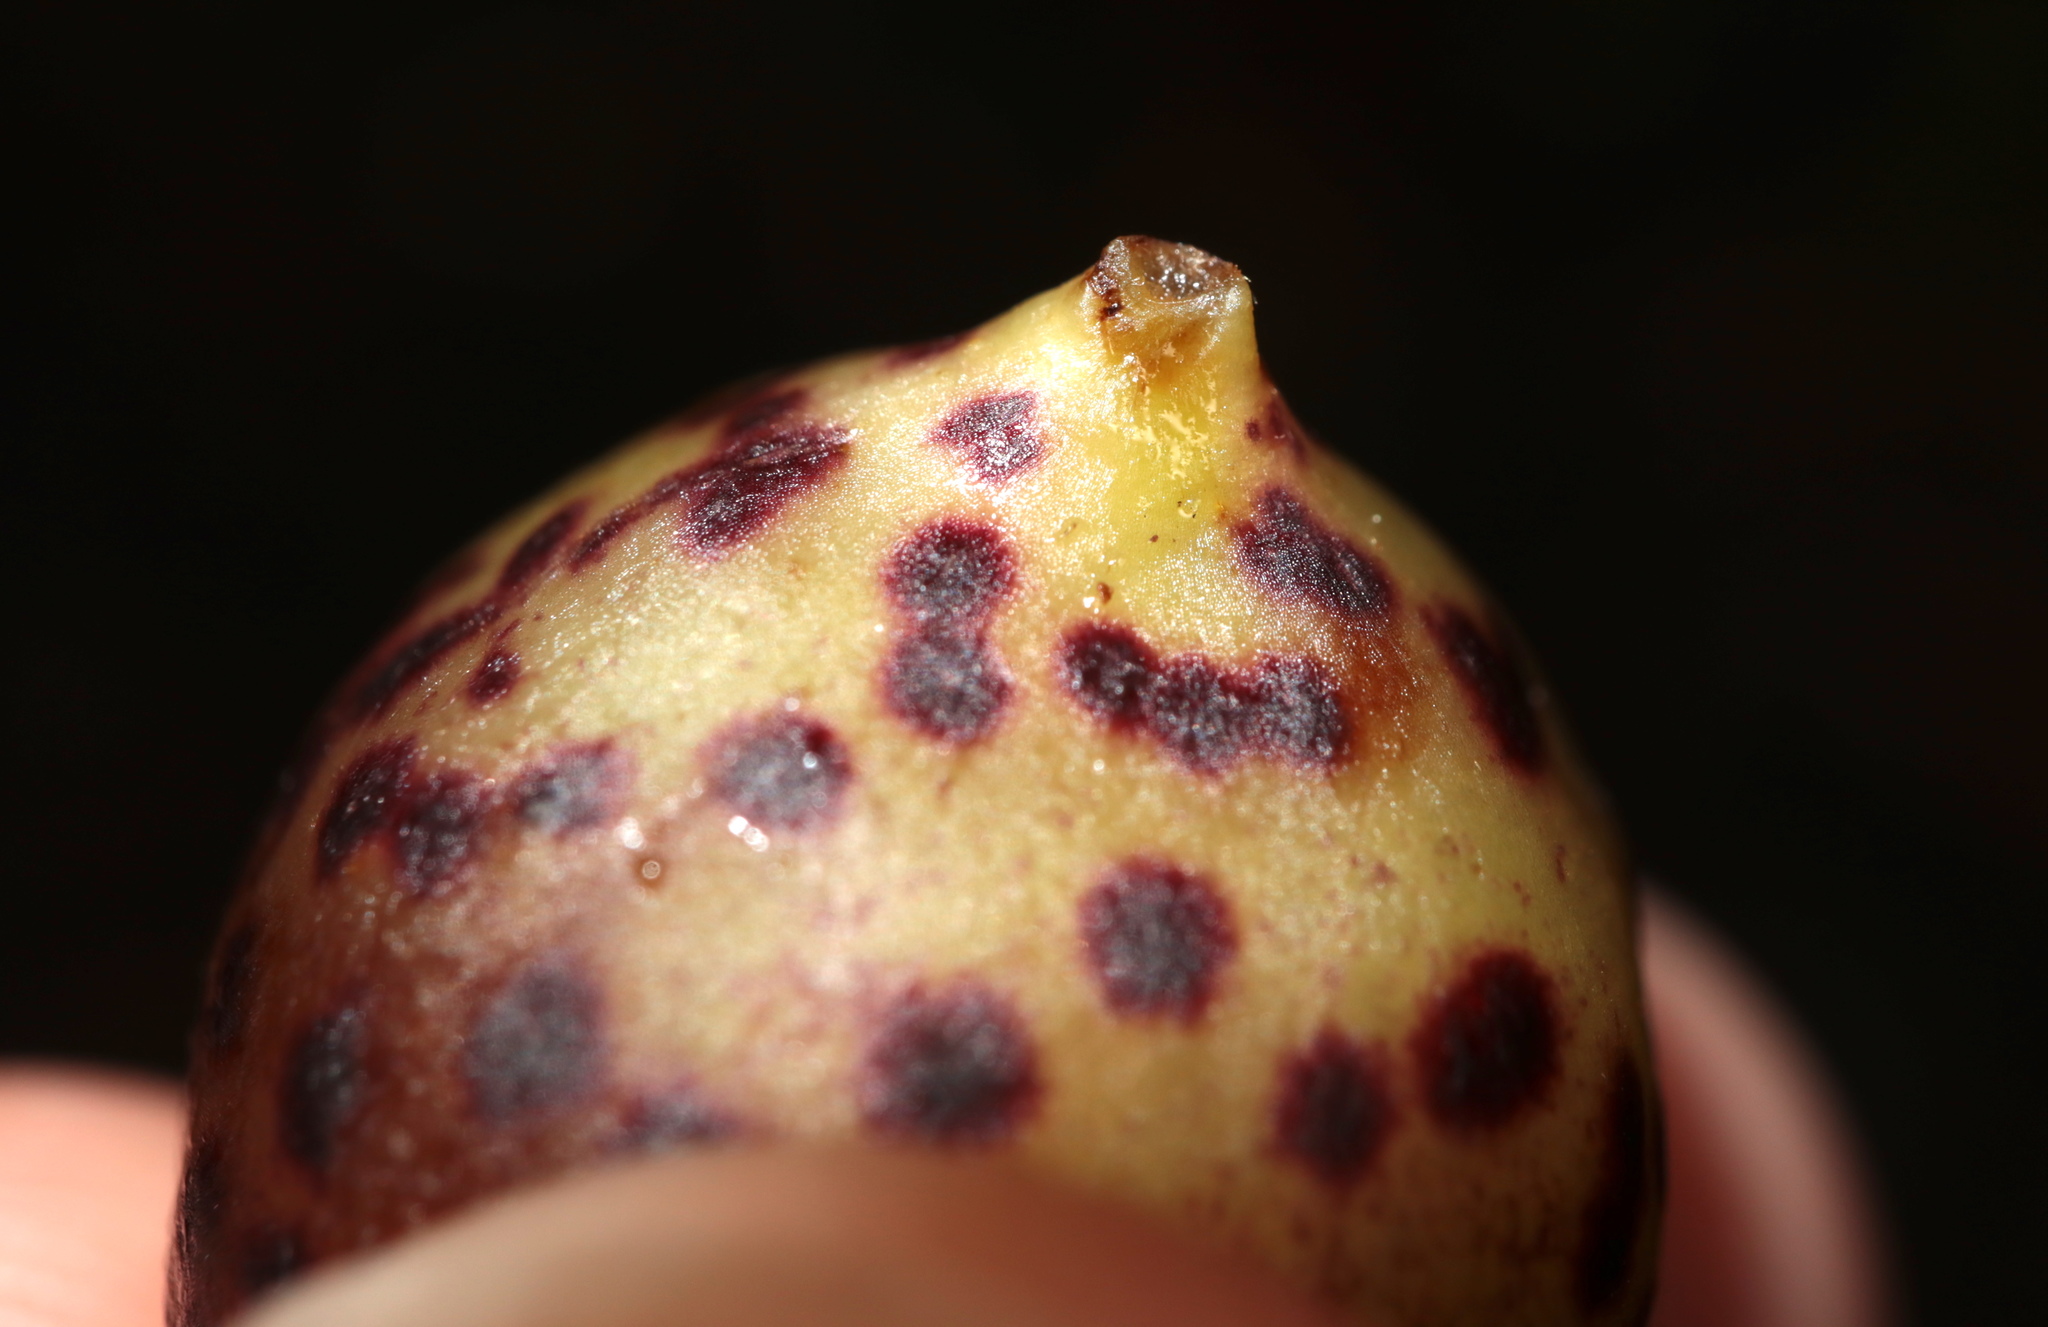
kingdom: Animalia
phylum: Arthropoda
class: Insecta
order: Hymenoptera
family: Cynipidae
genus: Amphibolips
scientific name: Amphibolips
